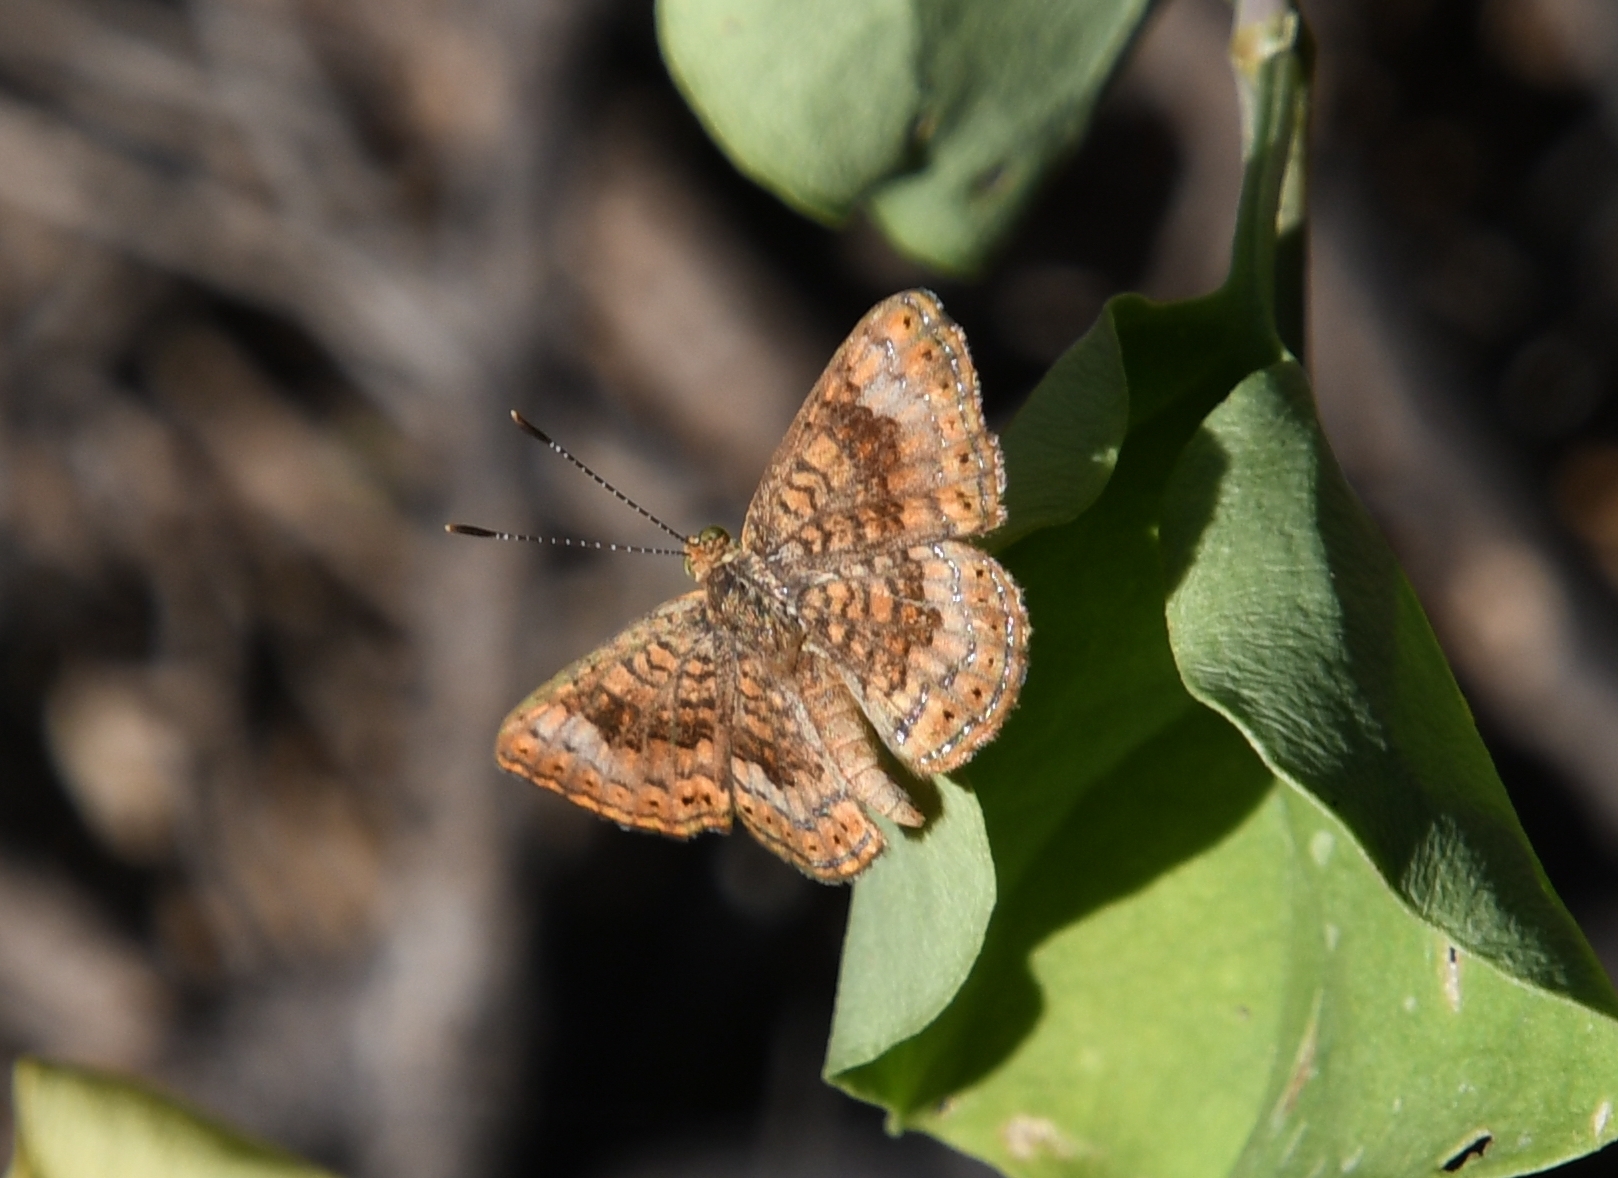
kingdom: Animalia
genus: Calephelis
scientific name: Calephelis nemesis
